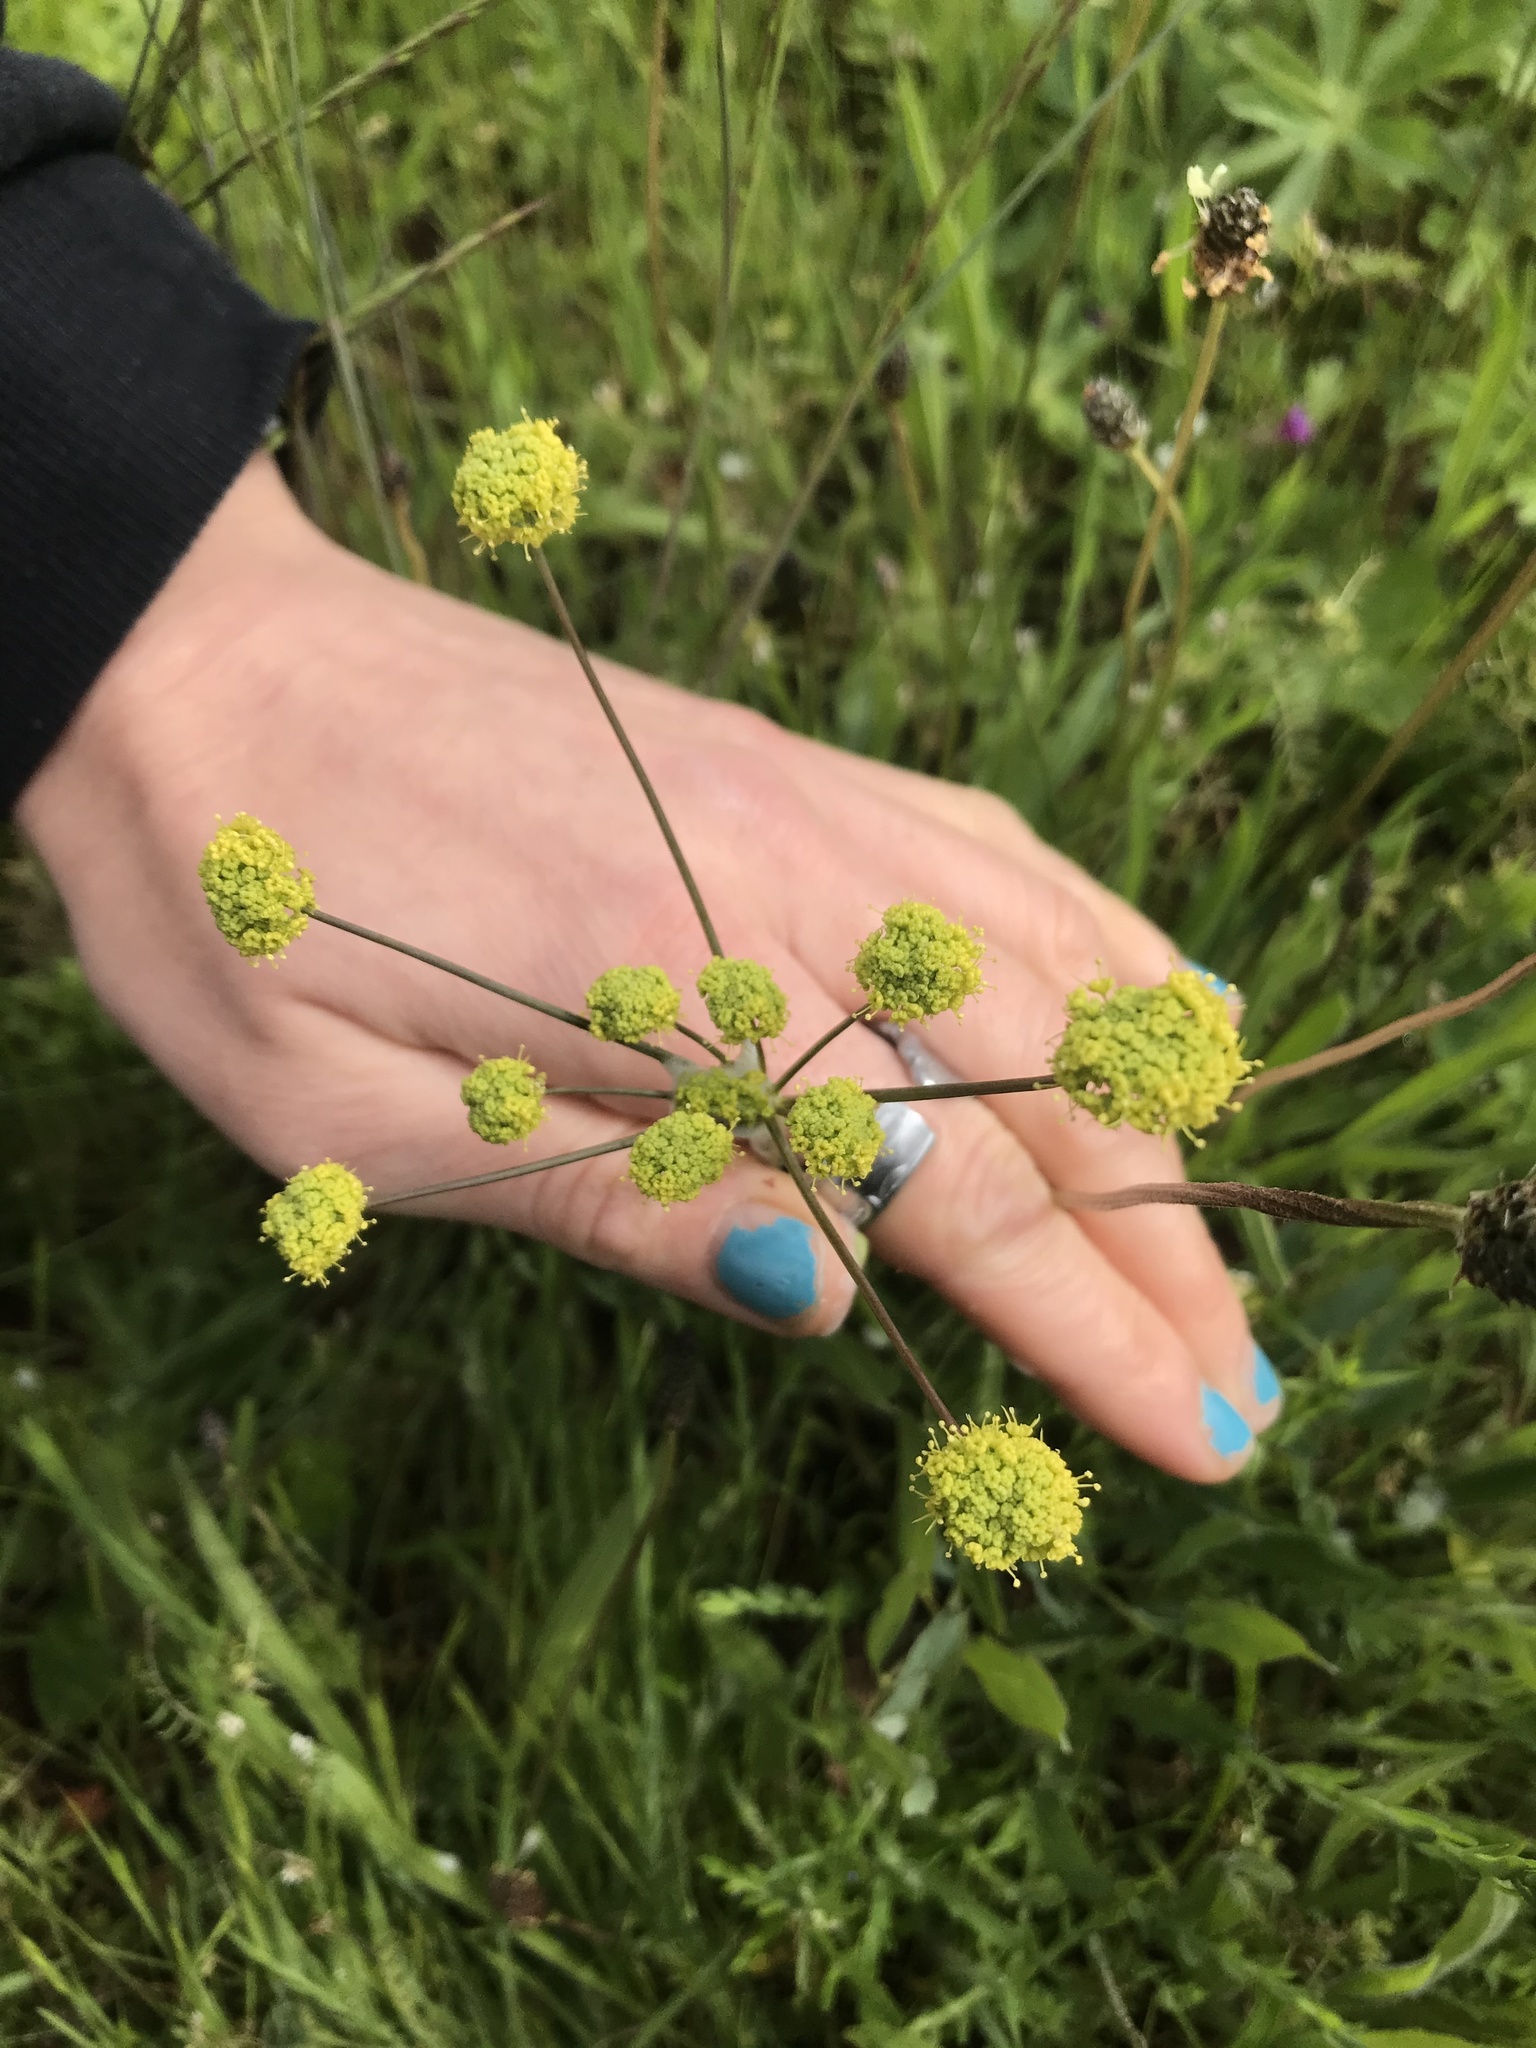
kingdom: Plantae
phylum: Tracheophyta
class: Magnoliopsida
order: Apiales
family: Apiaceae
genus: Lomatium
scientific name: Lomatium nudicaule
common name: Pestle lomatium
